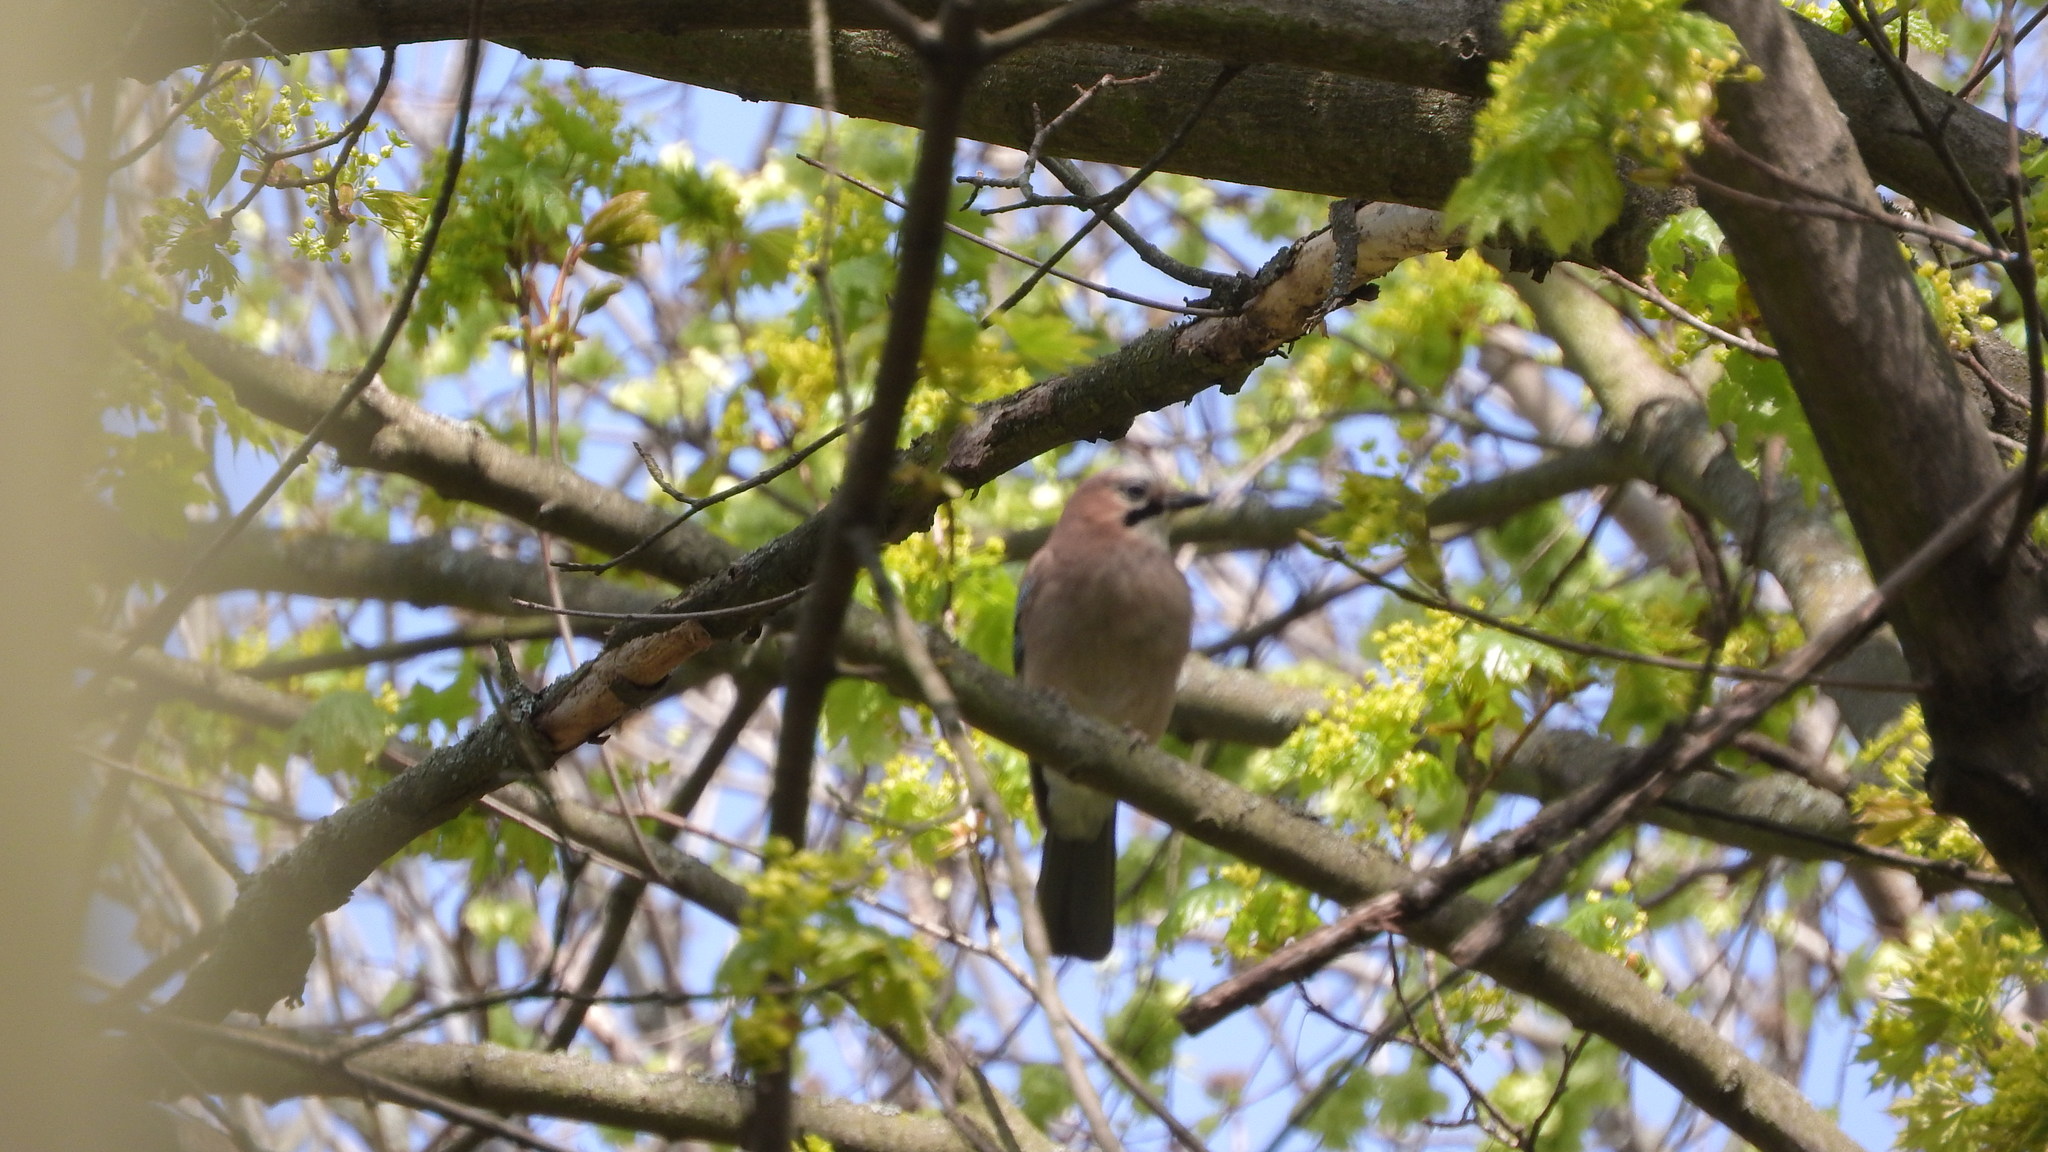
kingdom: Animalia
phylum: Chordata
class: Aves
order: Passeriformes
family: Corvidae
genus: Garrulus
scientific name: Garrulus glandarius
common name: Eurasian jay
